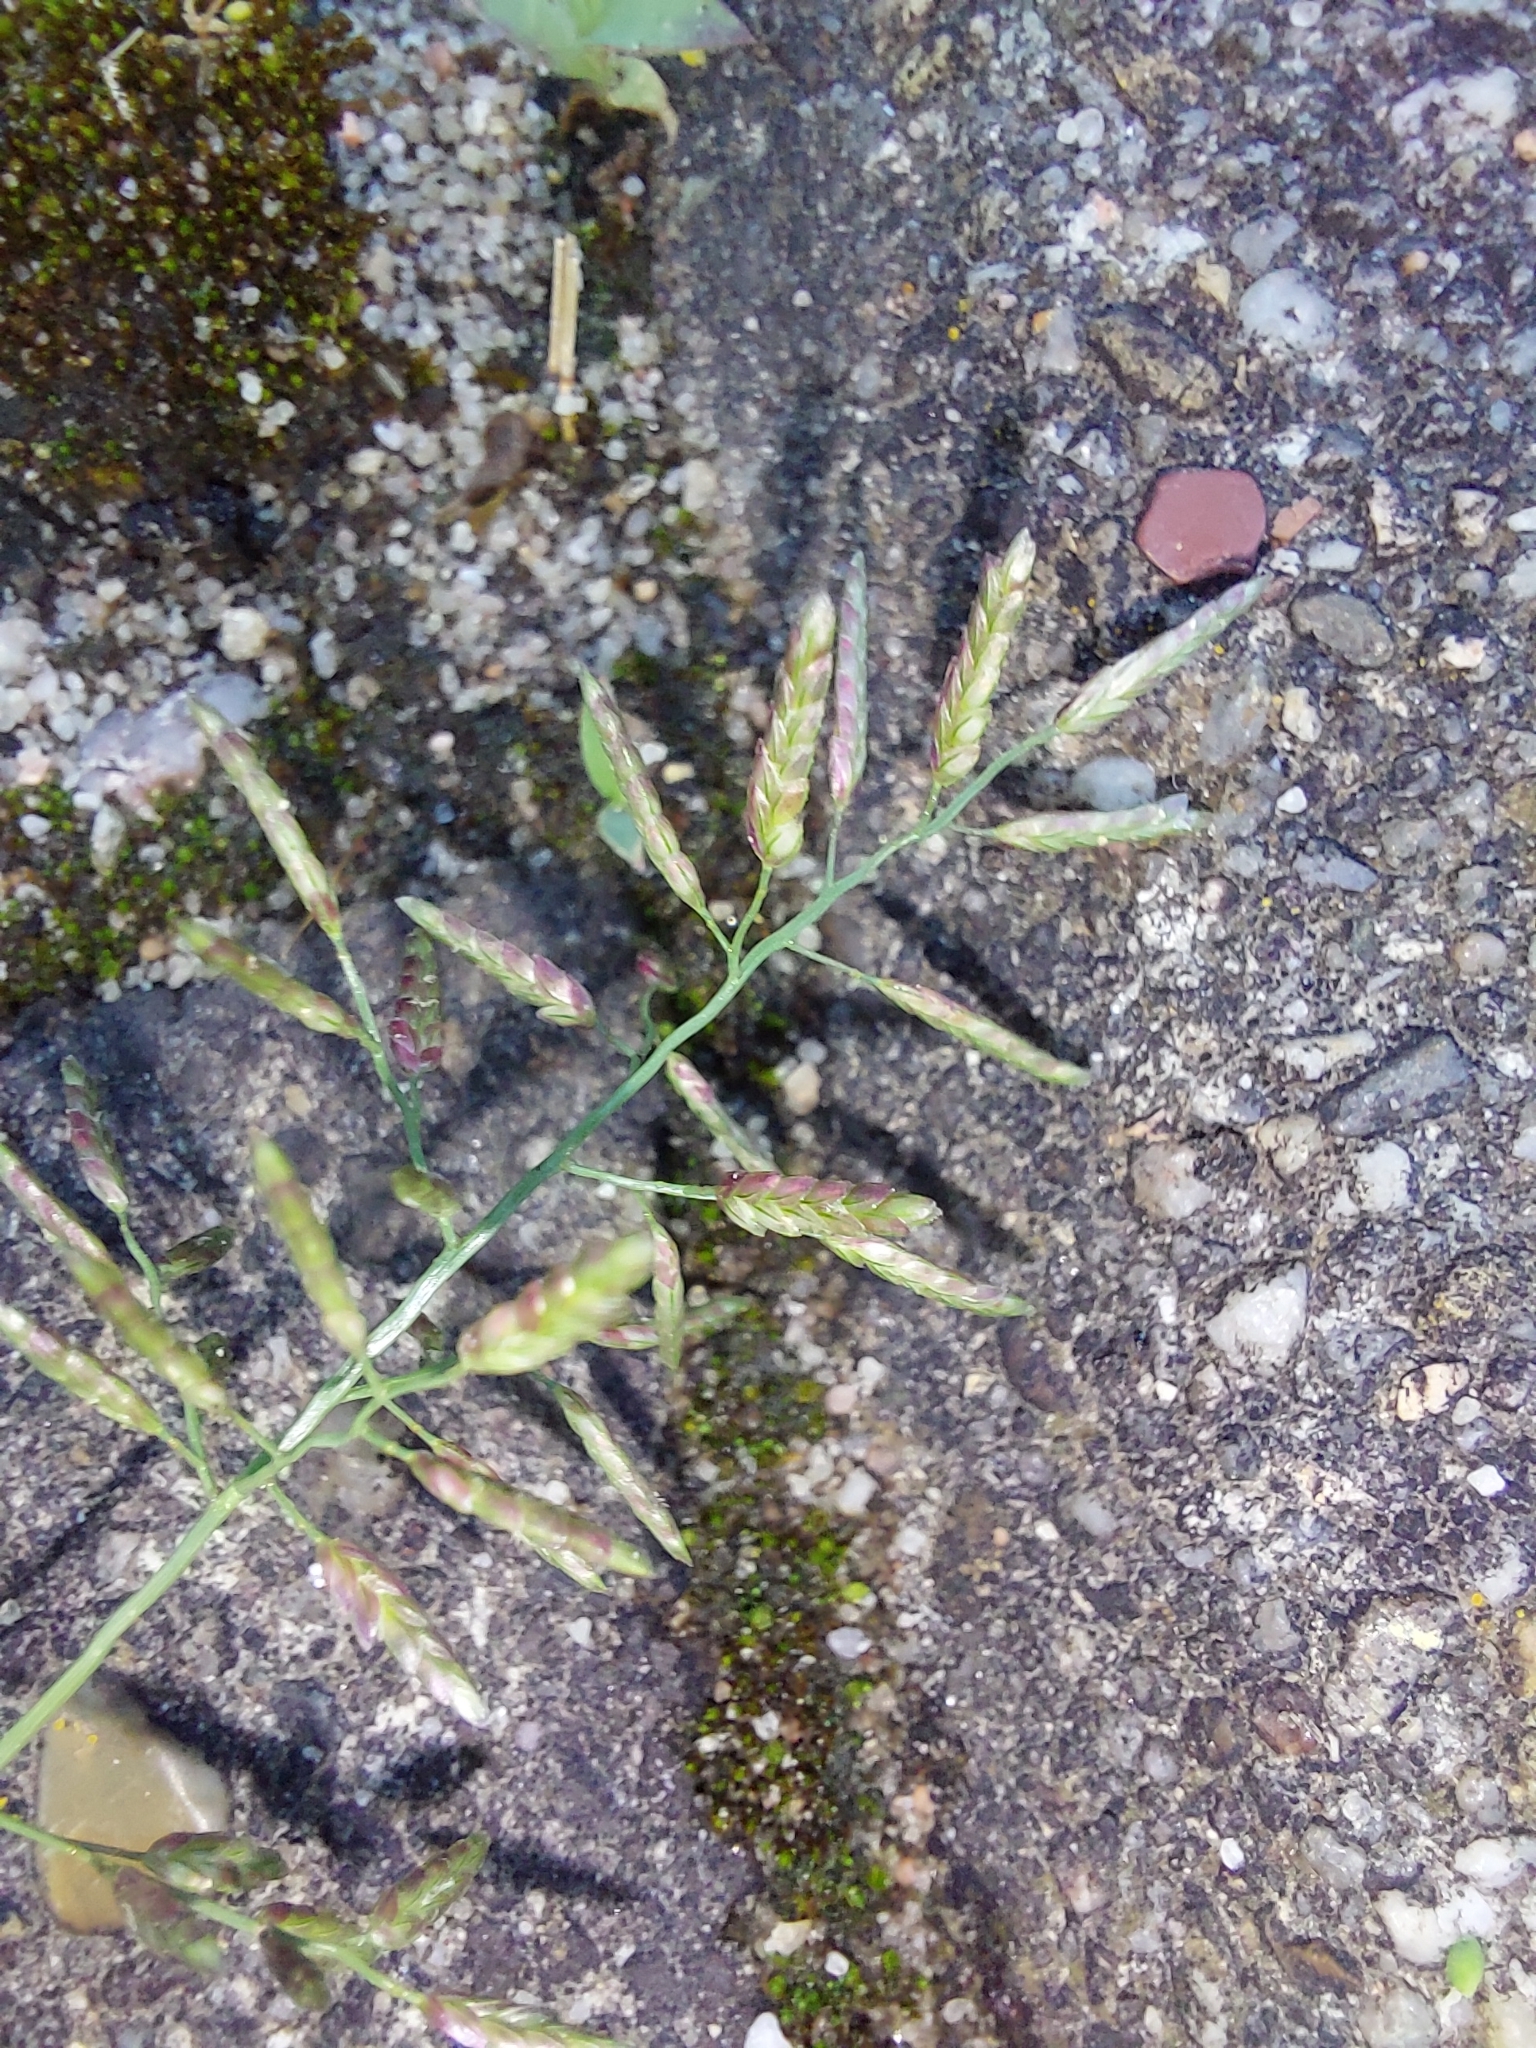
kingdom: Plantae
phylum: Tracheophyta
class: Liliopsida
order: Poales
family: Poaceae
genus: Eragrostis
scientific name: Eragrostis minor
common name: Small love-grass
